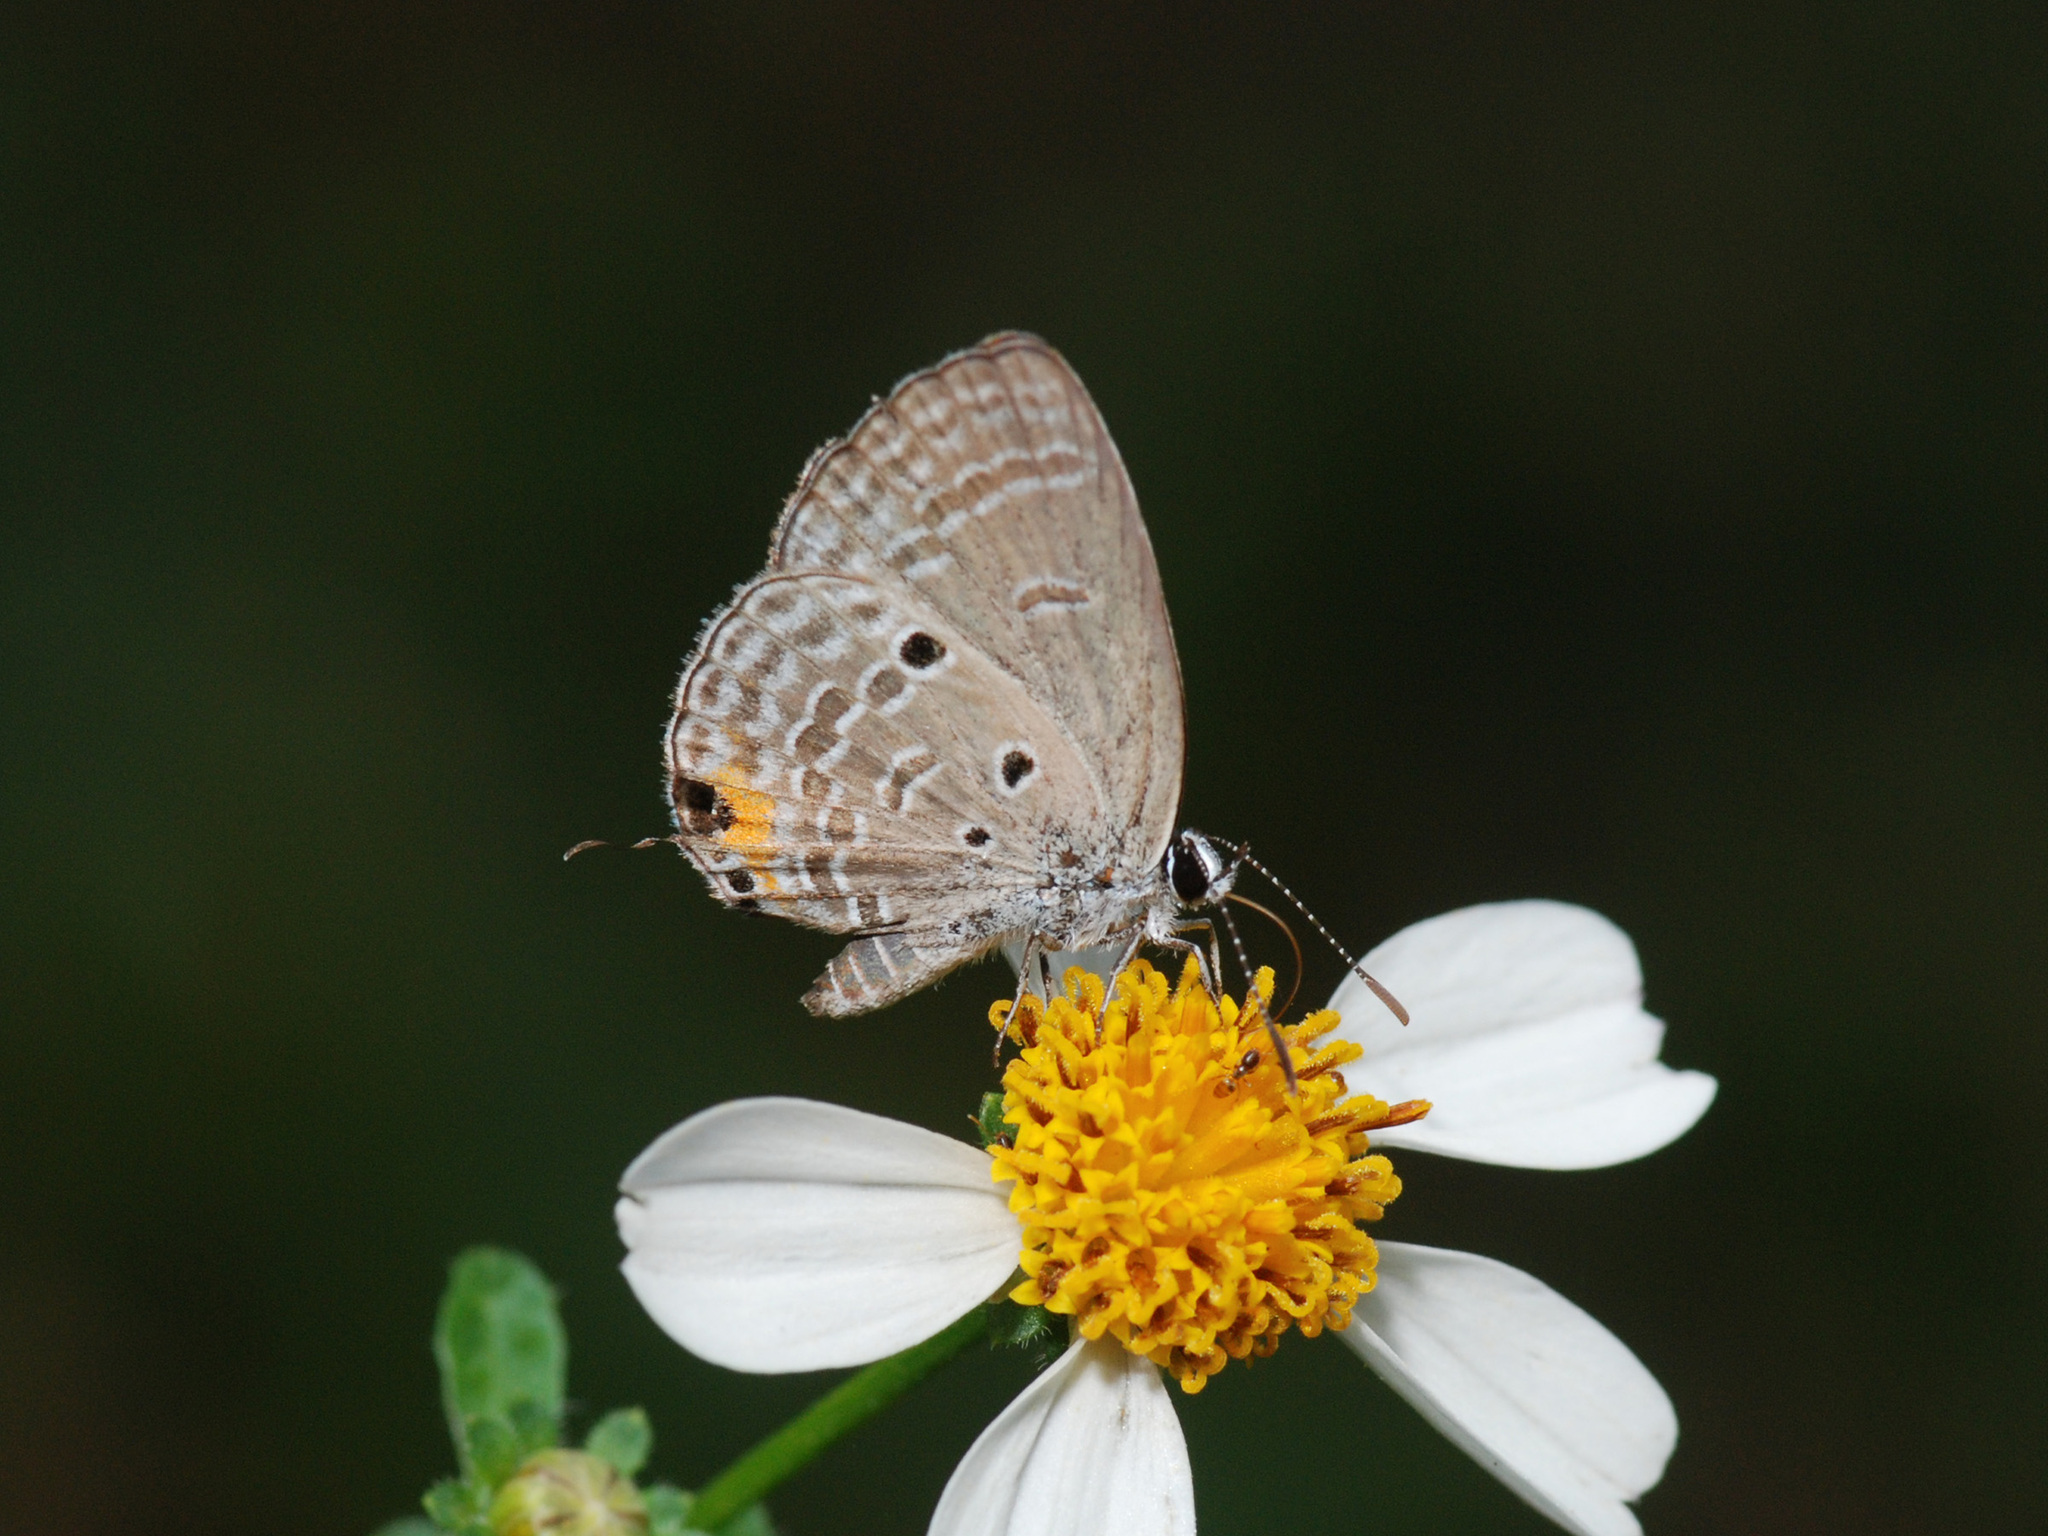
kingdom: Animalia
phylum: Arthropoda
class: Insecta
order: Lepidoptera
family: Lycaenidae
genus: Luthrodes
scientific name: Luthrodes pandava
